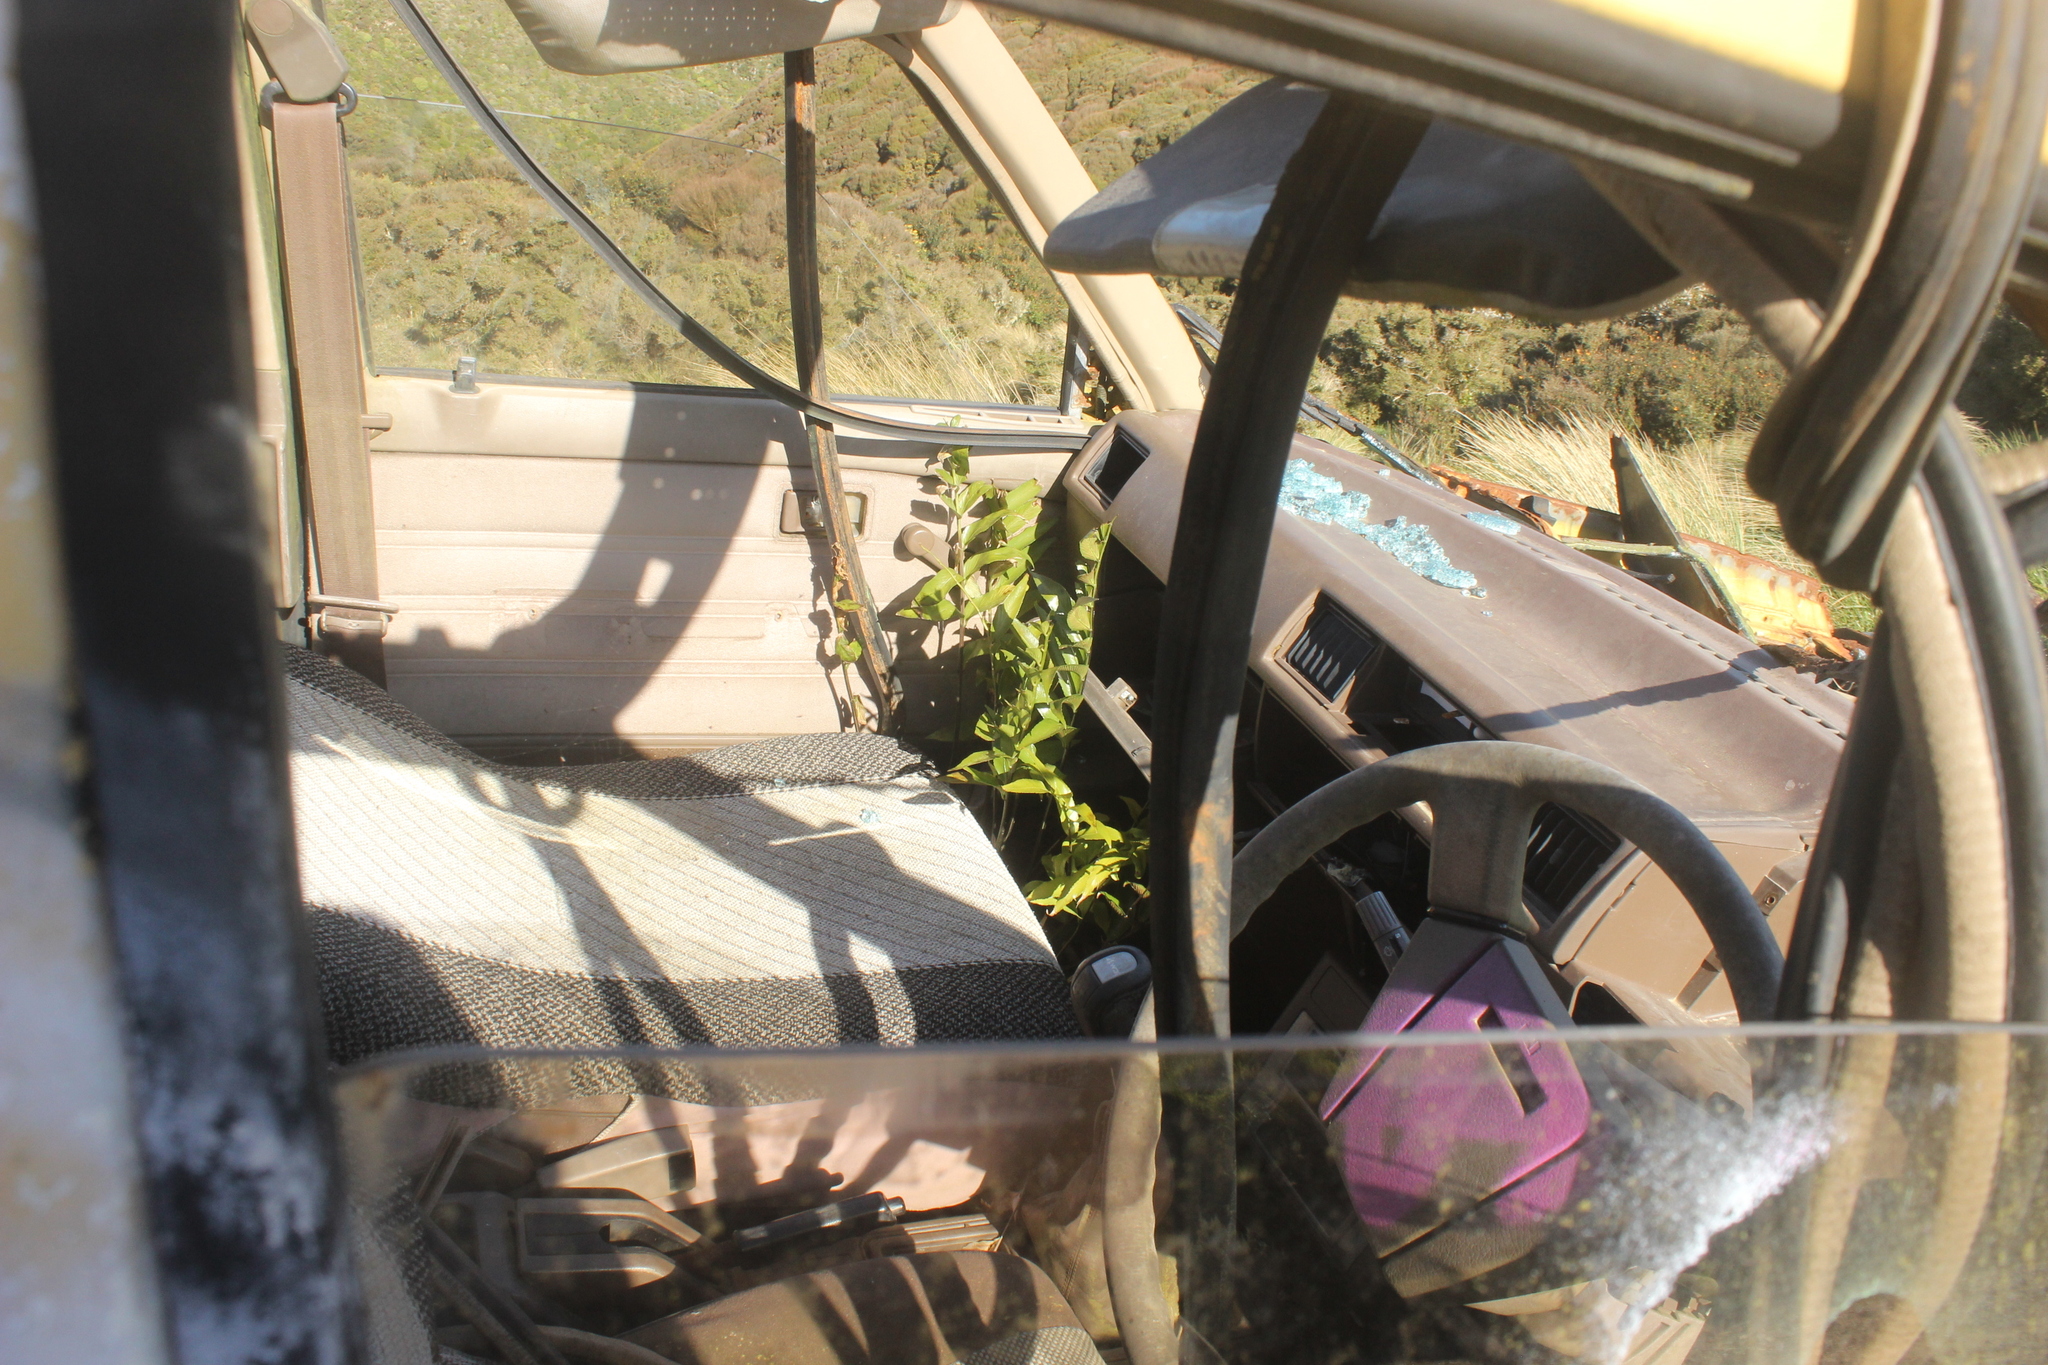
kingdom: Plantae
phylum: Tracheophyta
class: Polypodiopsida
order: Polypodiales
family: Aspleniaceae
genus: Asplenium
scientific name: Asplenium oblongifolium
